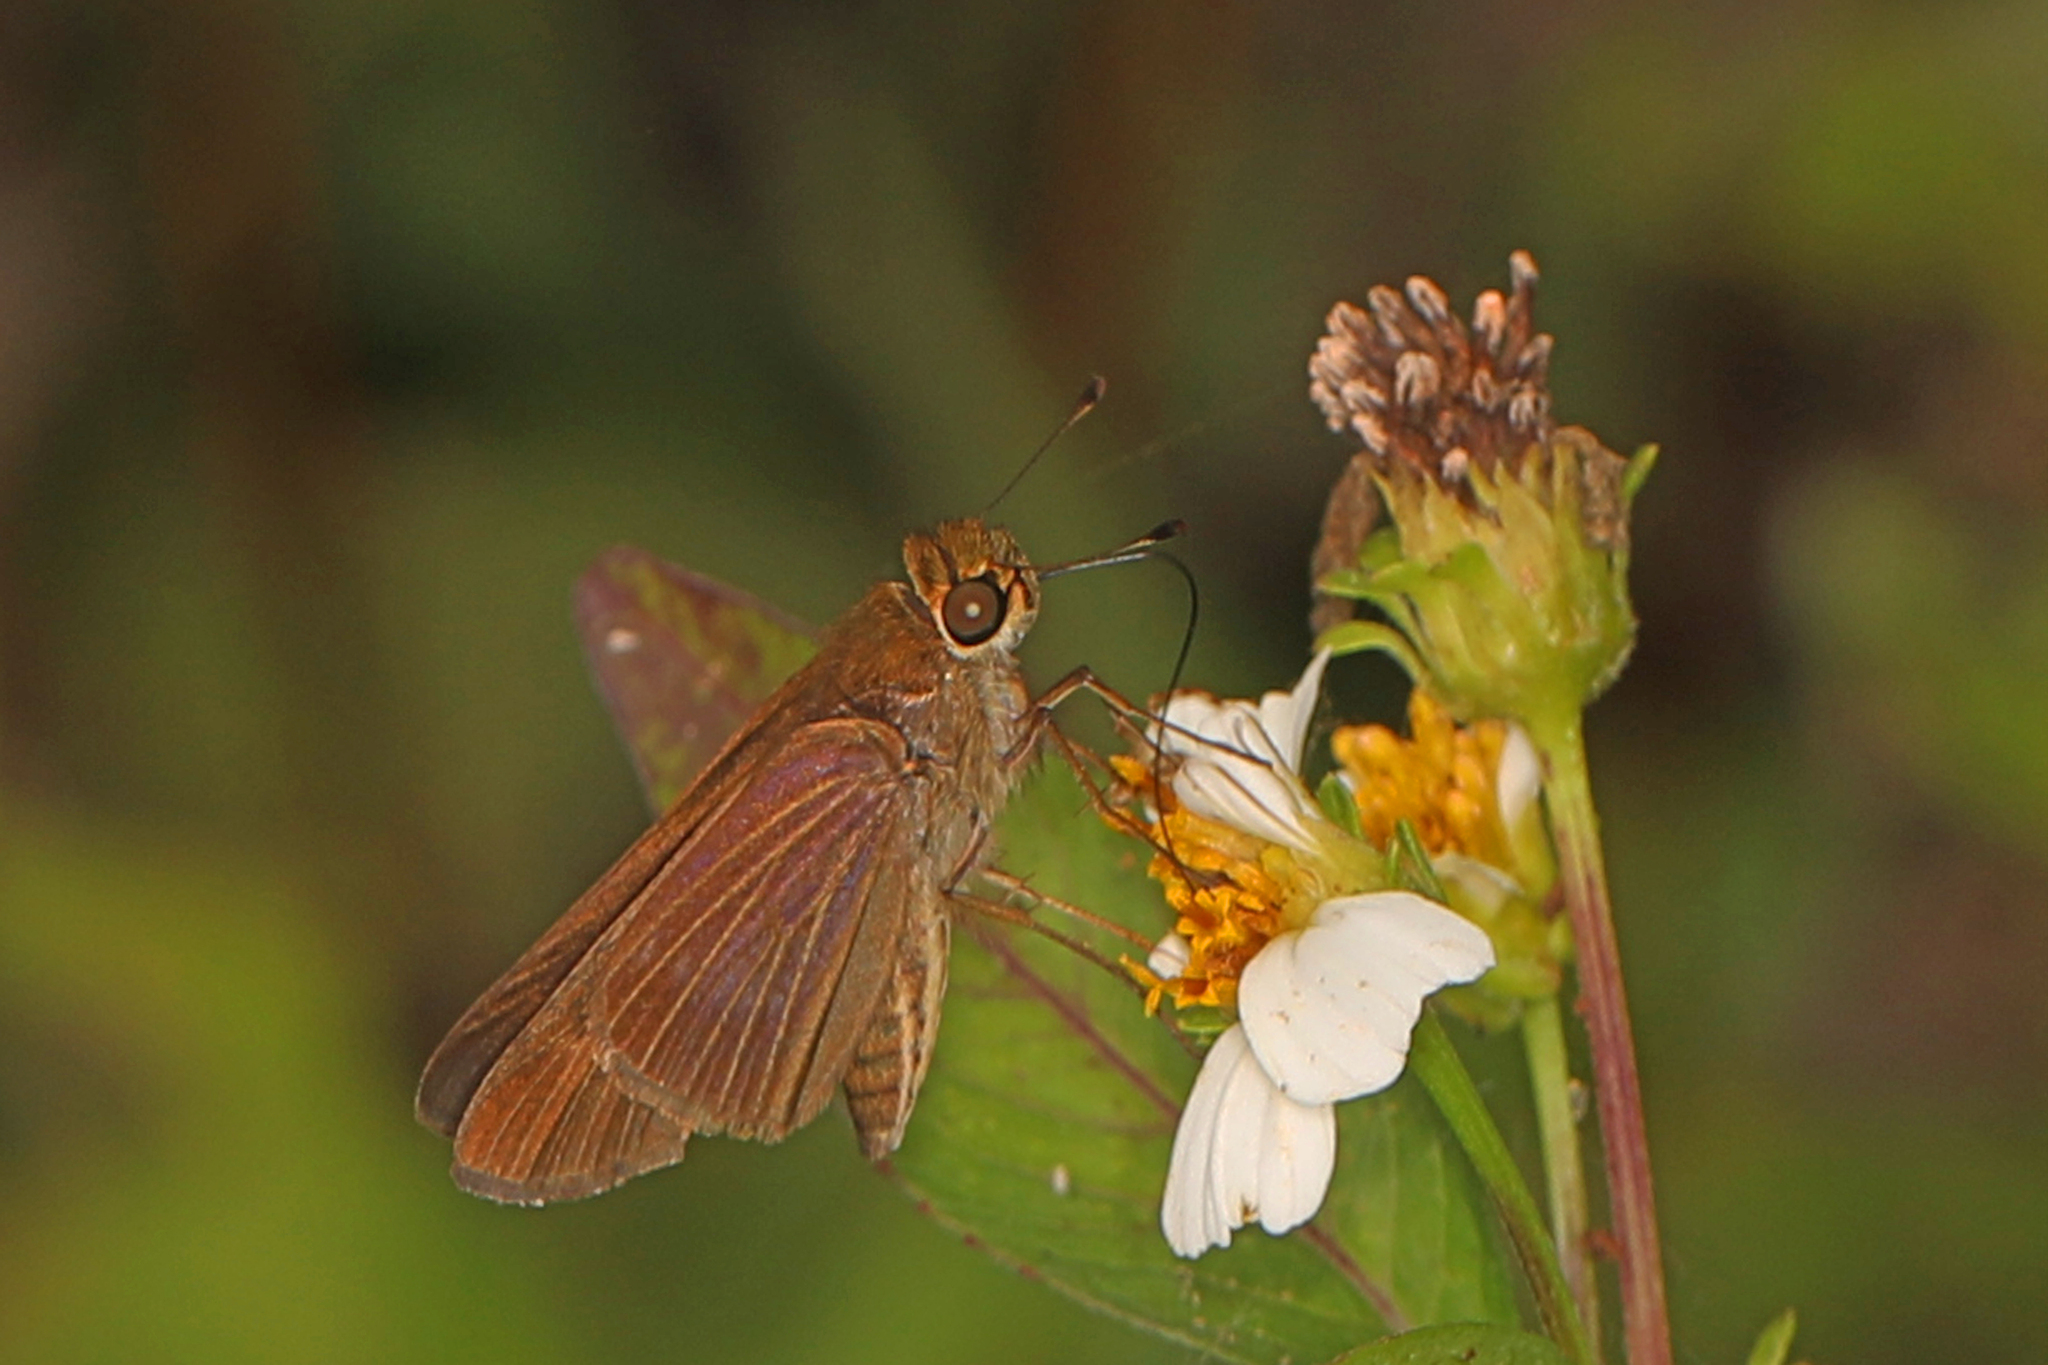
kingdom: Animalia
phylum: Arthropoda
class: Insecta
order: Lepidoptera
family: Hesperiidae
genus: Panoquina
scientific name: Panoquina ocola
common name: Ocola skipper
